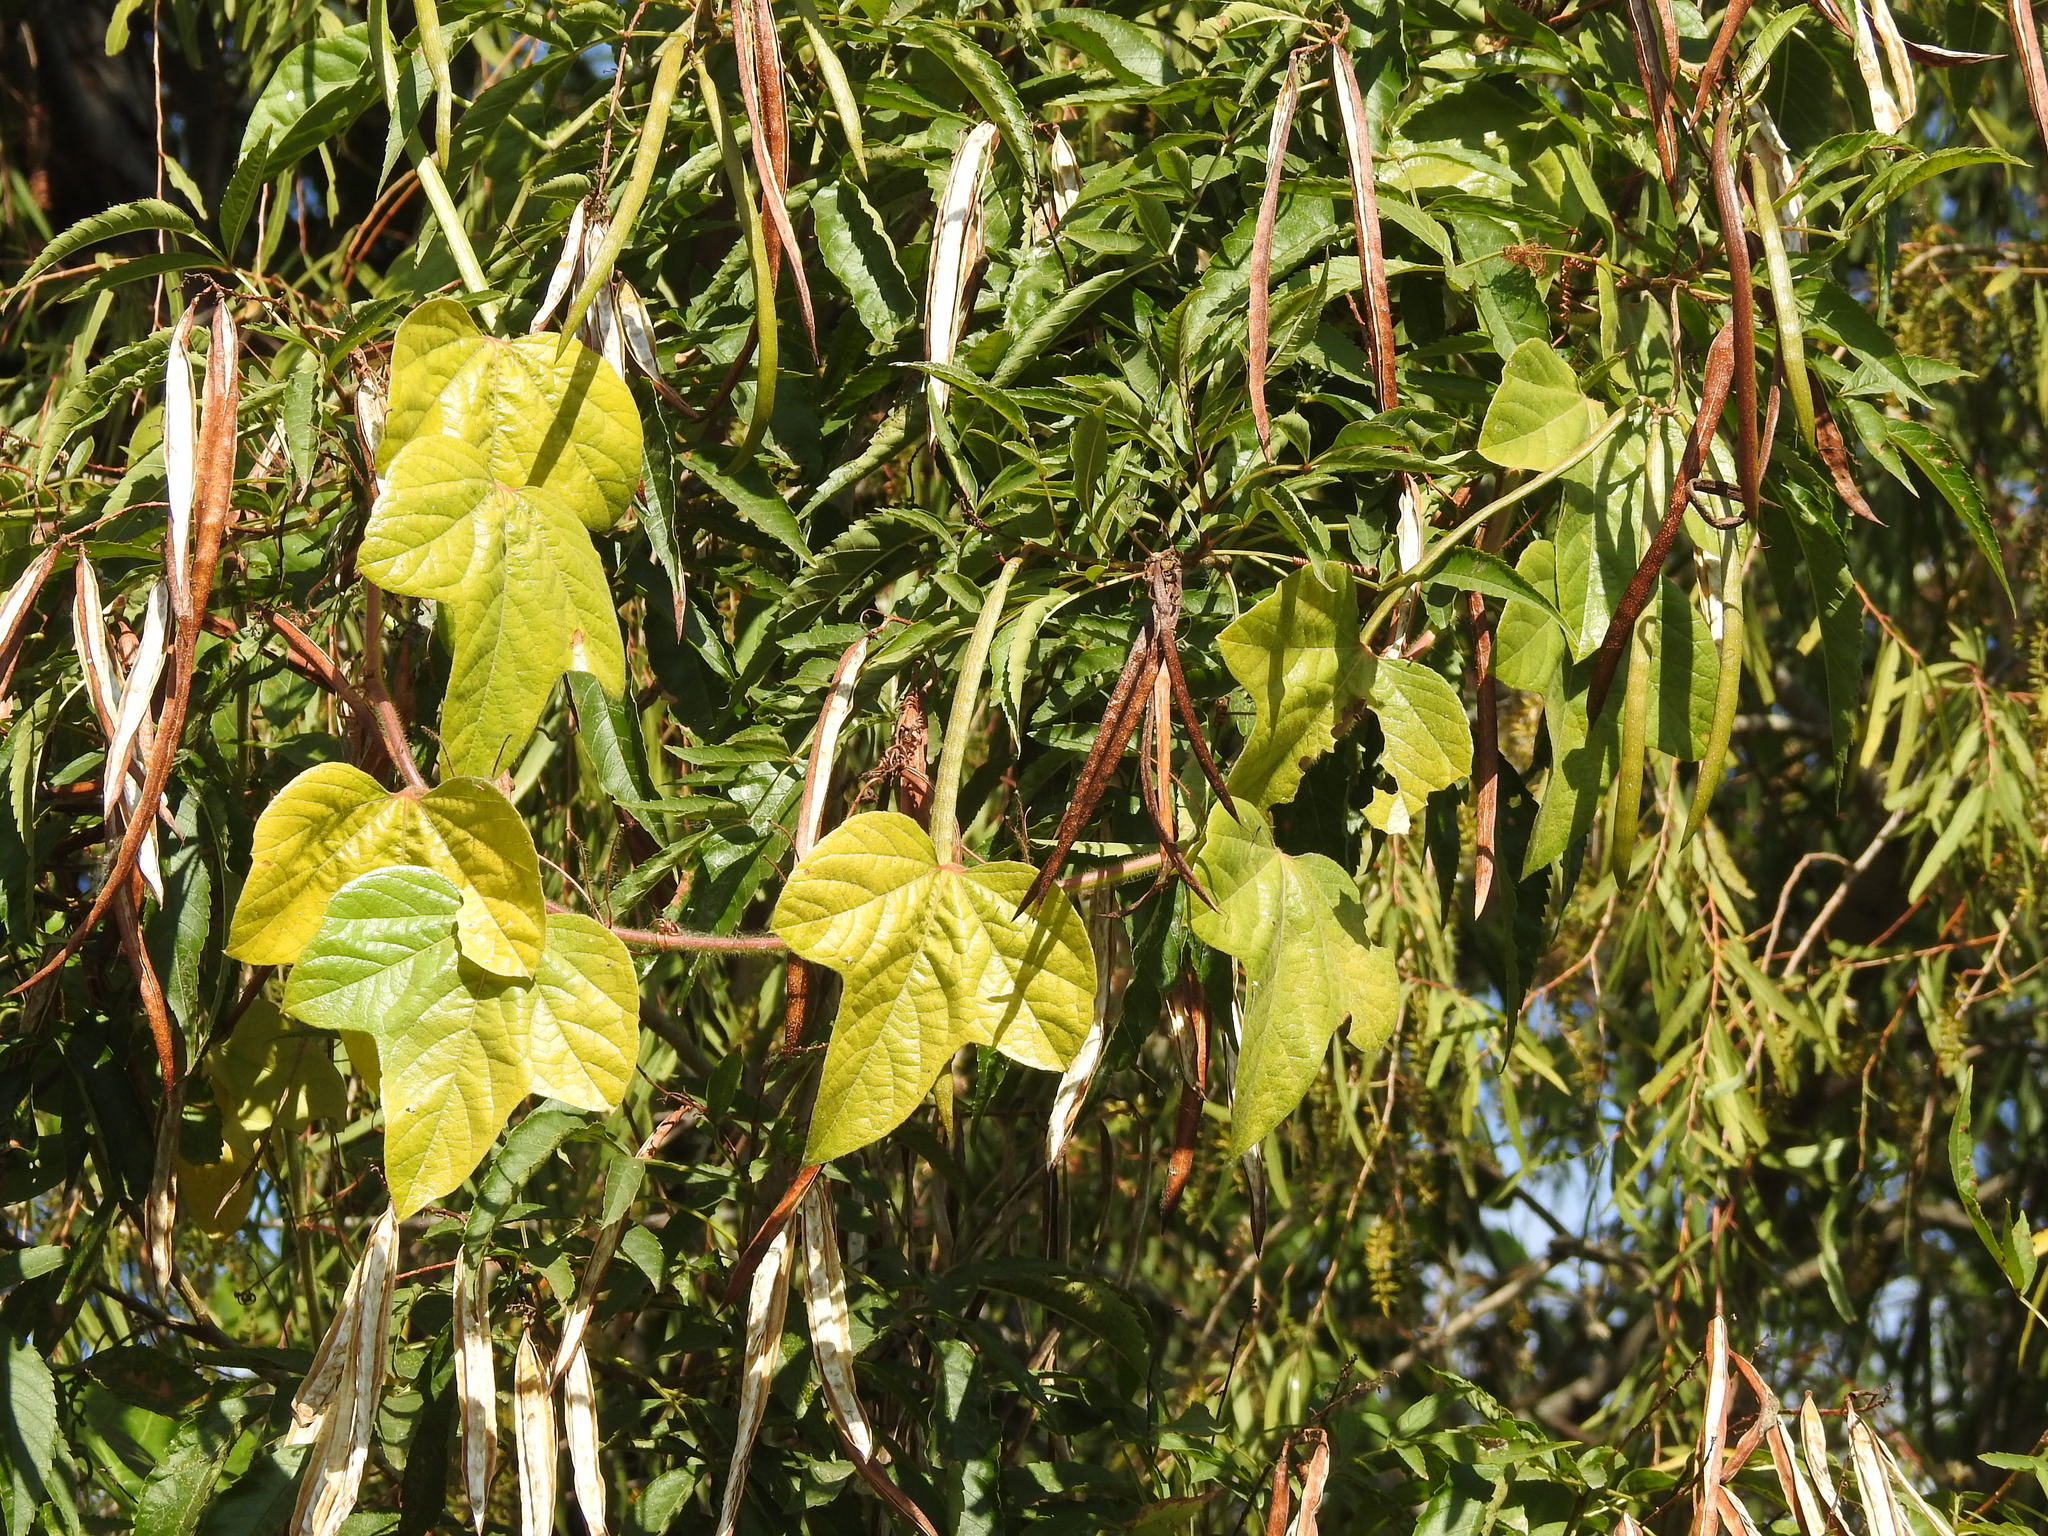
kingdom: Plantae
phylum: Tracheophyta
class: Magnoliopsida
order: Malpighiales
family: Passifloraceae
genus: Passiflora
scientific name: Passiflora foetida
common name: Fetid passionflower
